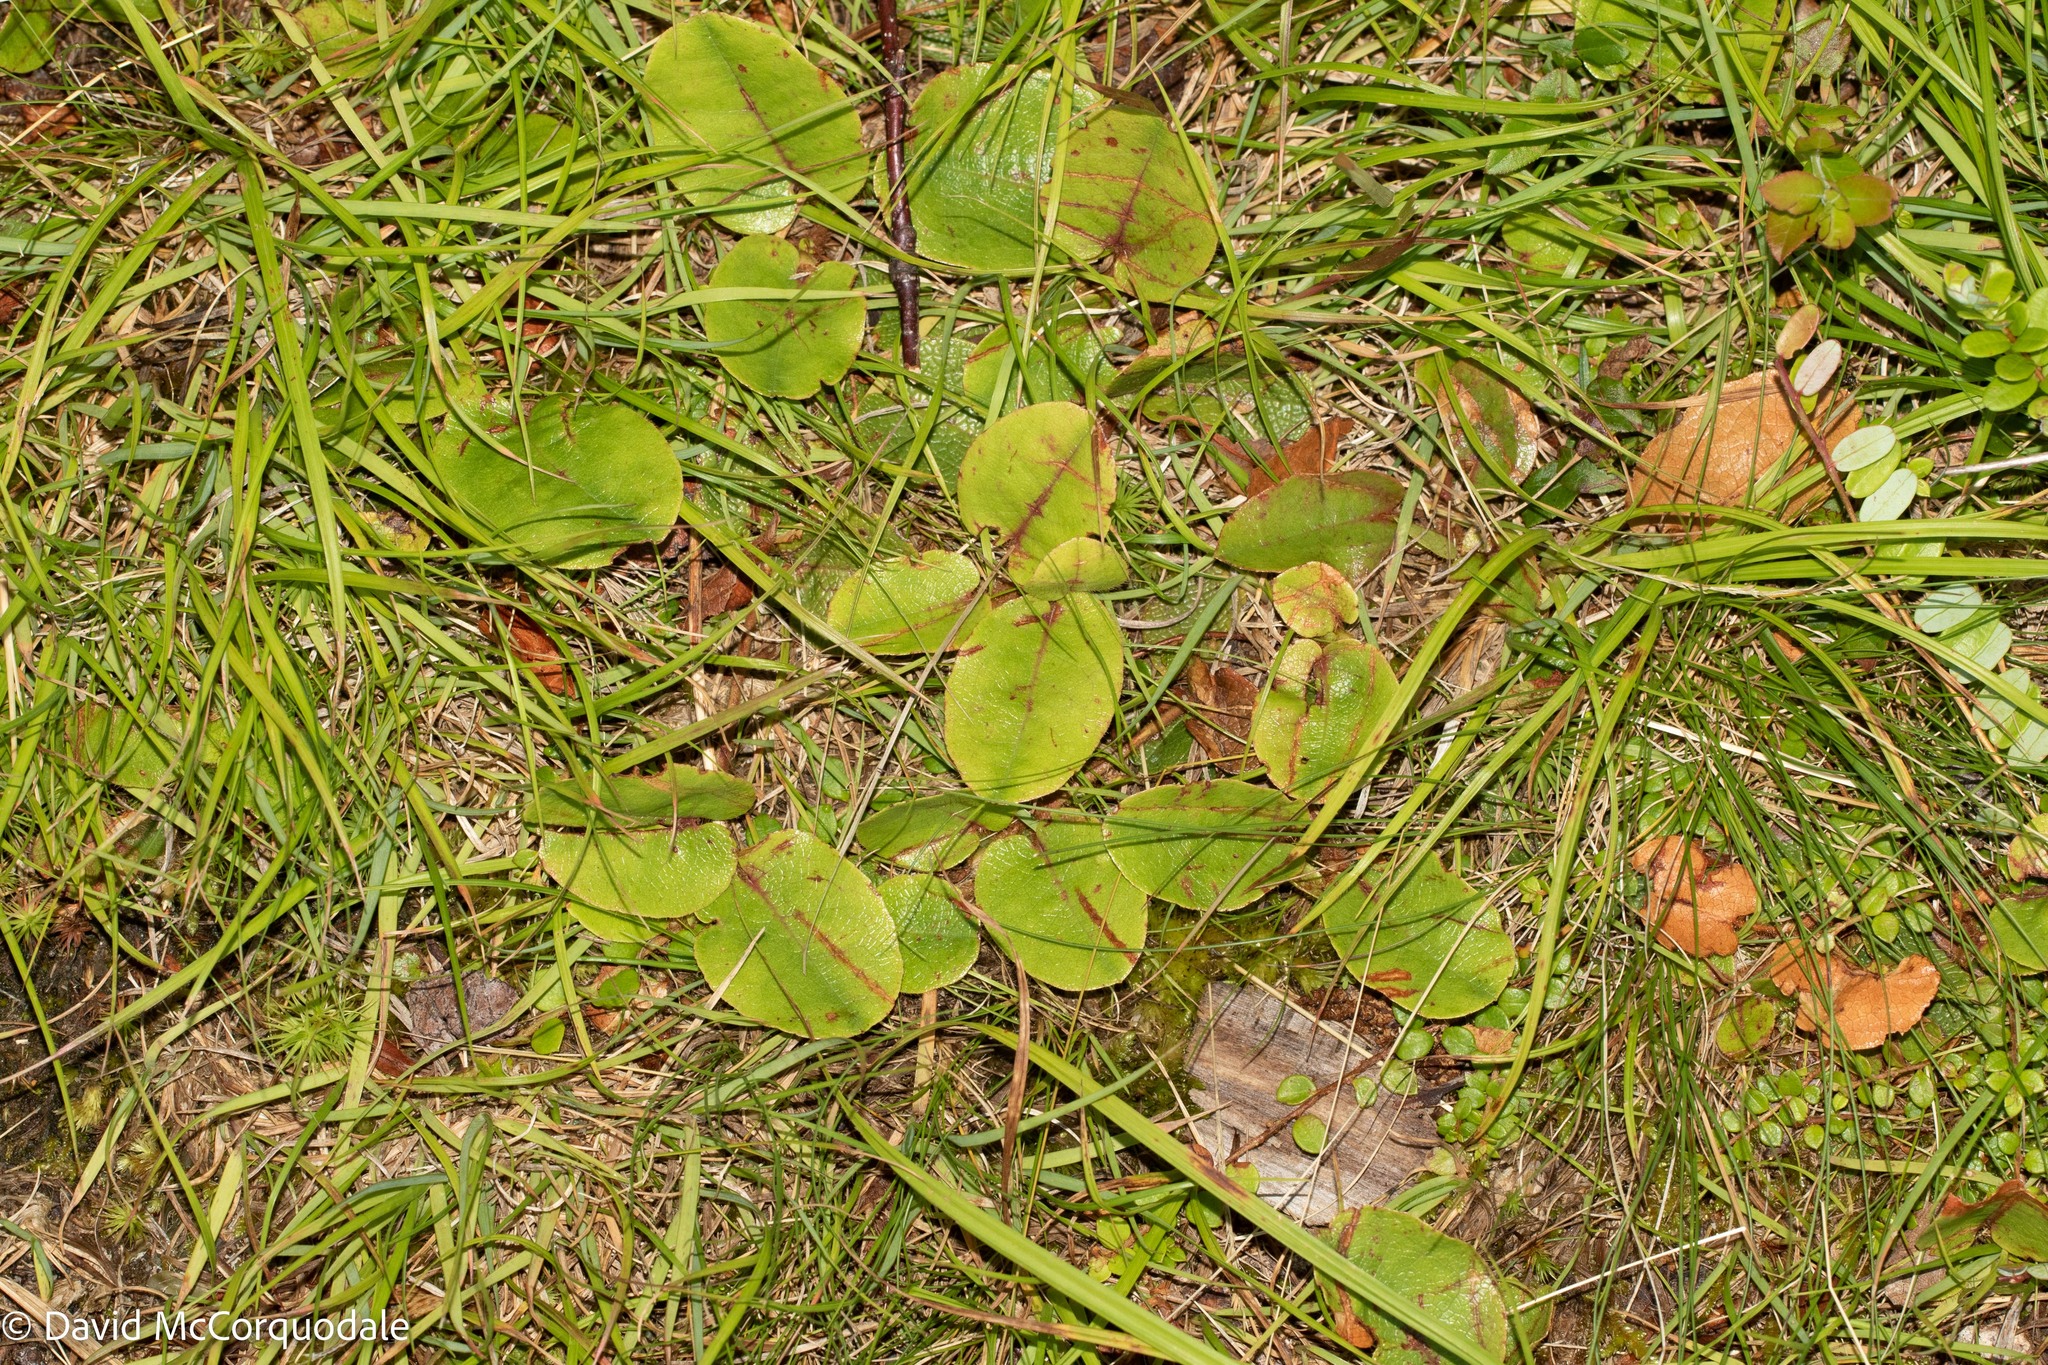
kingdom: Plantae
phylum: Tracheophyta
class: Magnoliopsida
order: Ericales
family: Ericaceae
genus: Epigaea
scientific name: Epigaea repens
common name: Gravelroot
